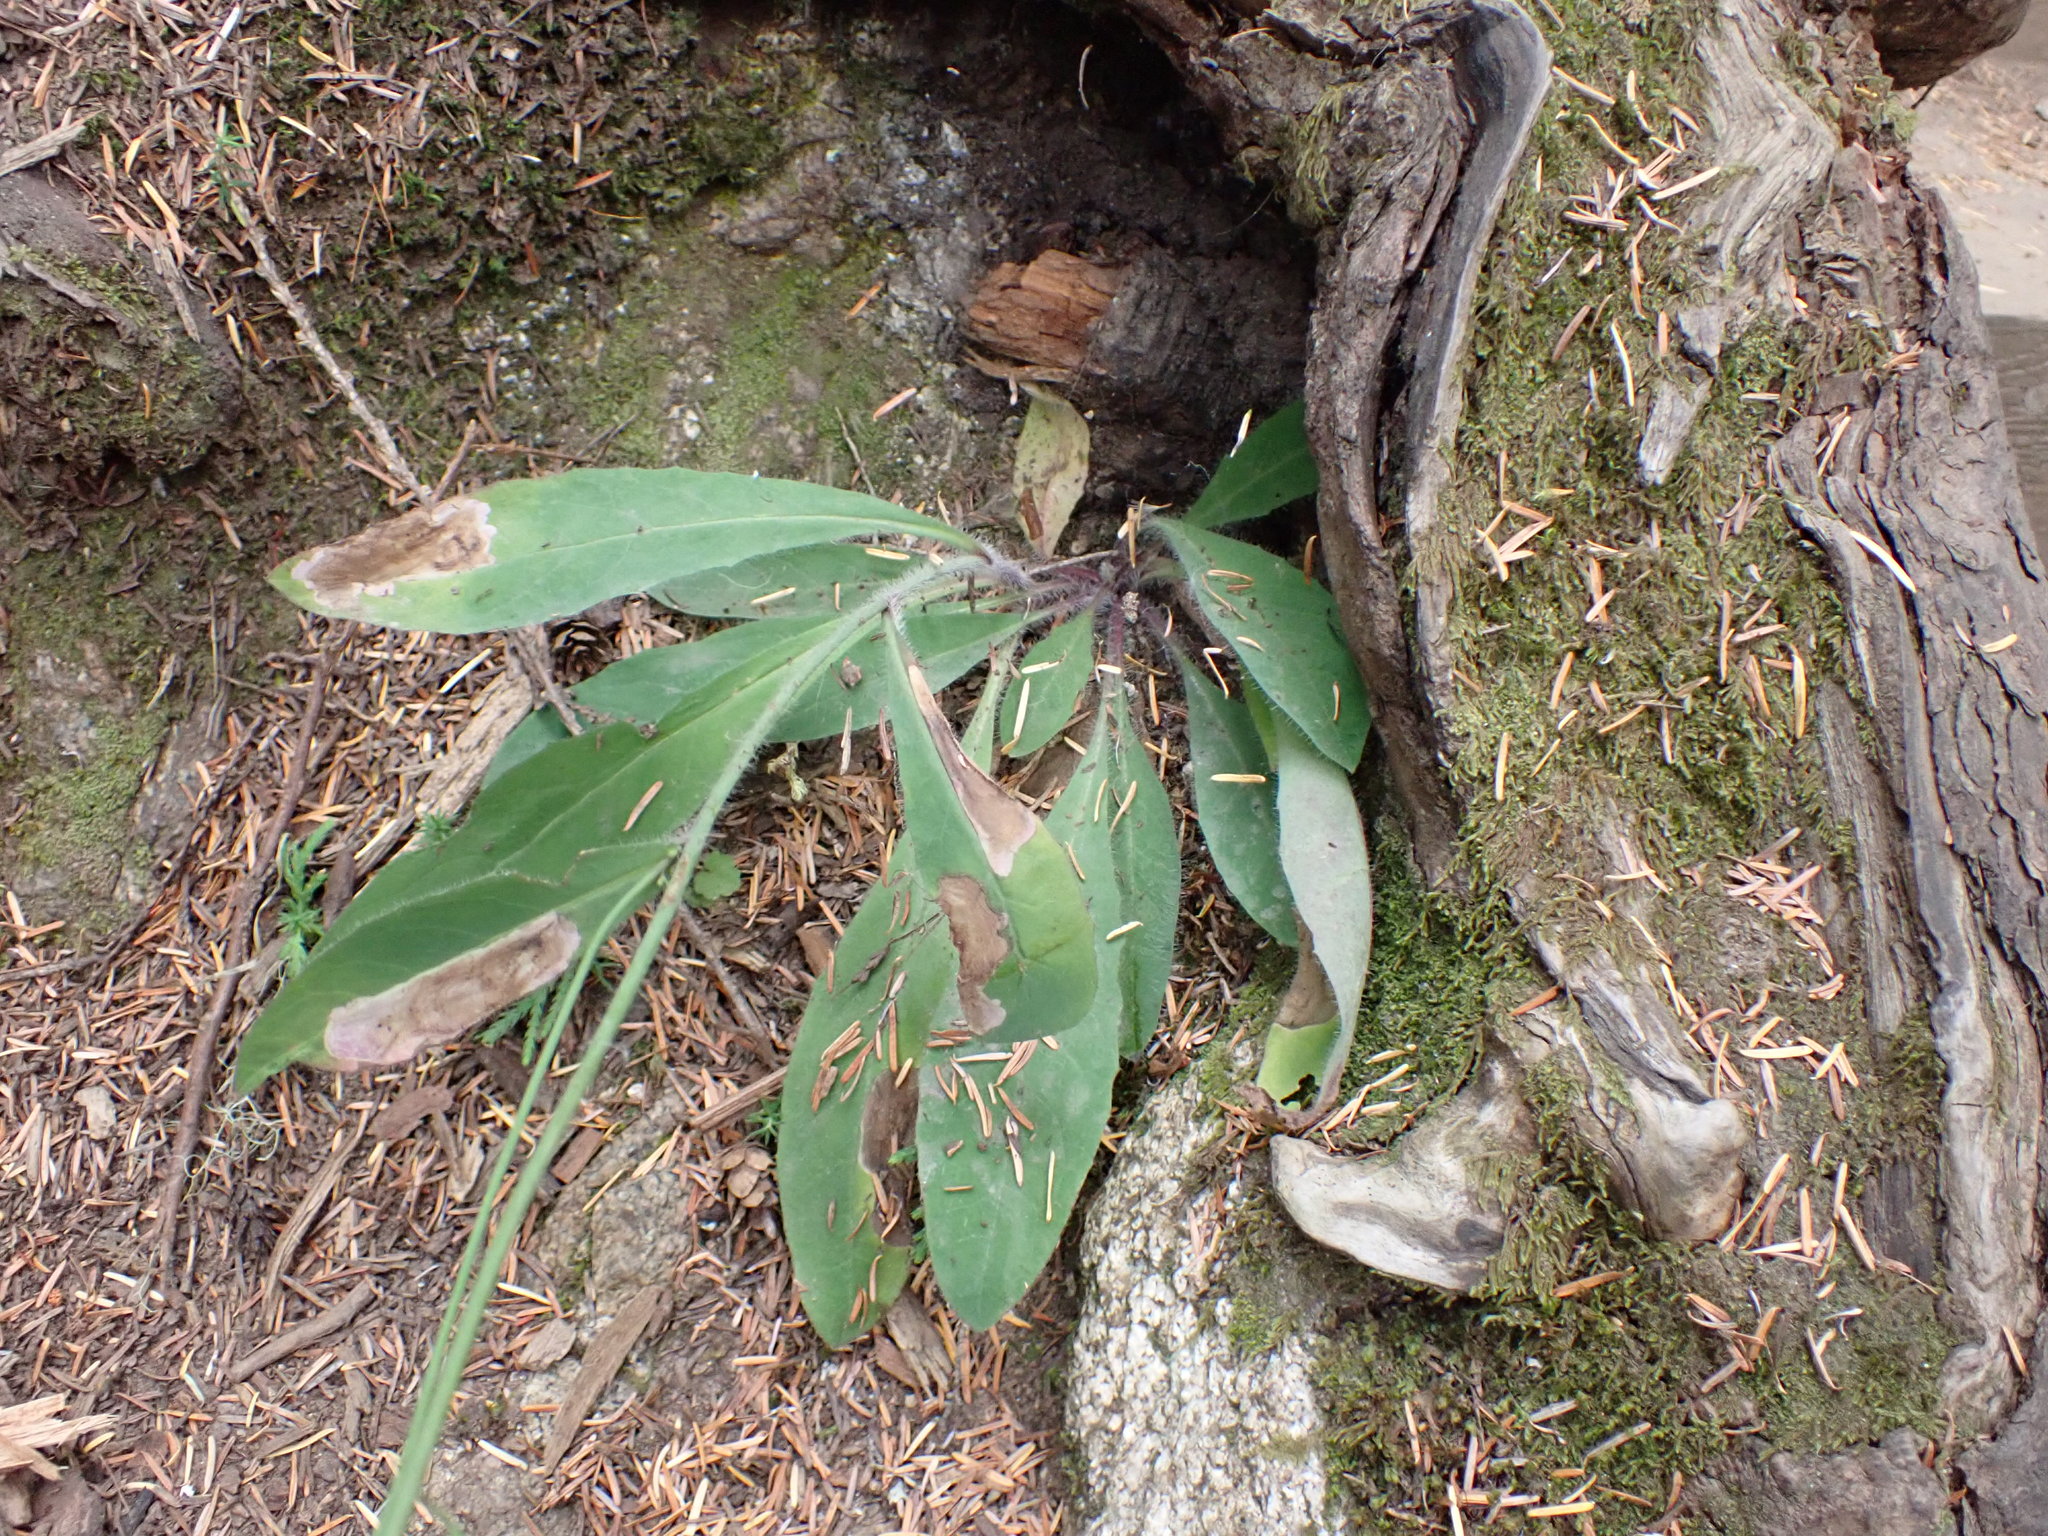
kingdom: Plantae
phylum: Tracheophyta
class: Magnoliopsida
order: Asterales
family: Asteraceae
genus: Hieracium
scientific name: Hieracium albiflorum
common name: White hawkweed
